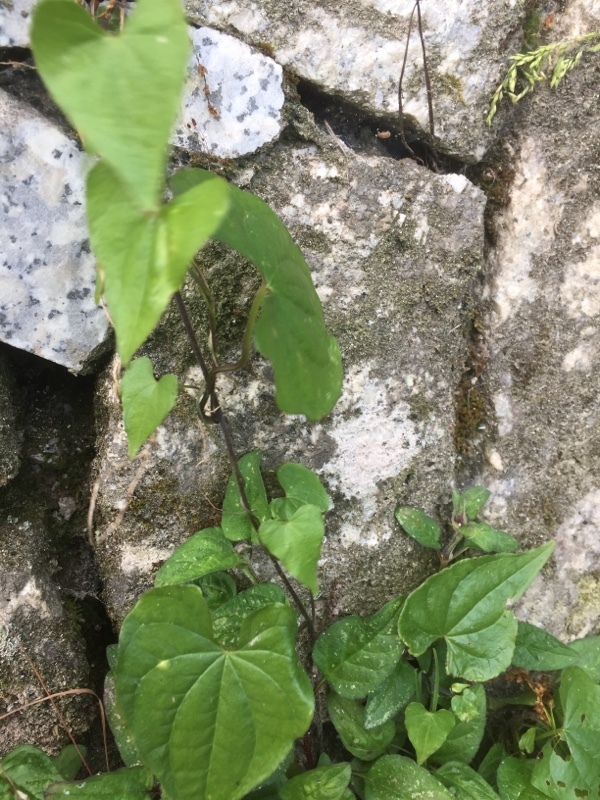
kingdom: Plantae
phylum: Tracheophyta
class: Liliopsida
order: Dioscoreales
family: Dioscoreaceae
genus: Dioscorea
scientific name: Dioscorea communis
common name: Black-bindweed
